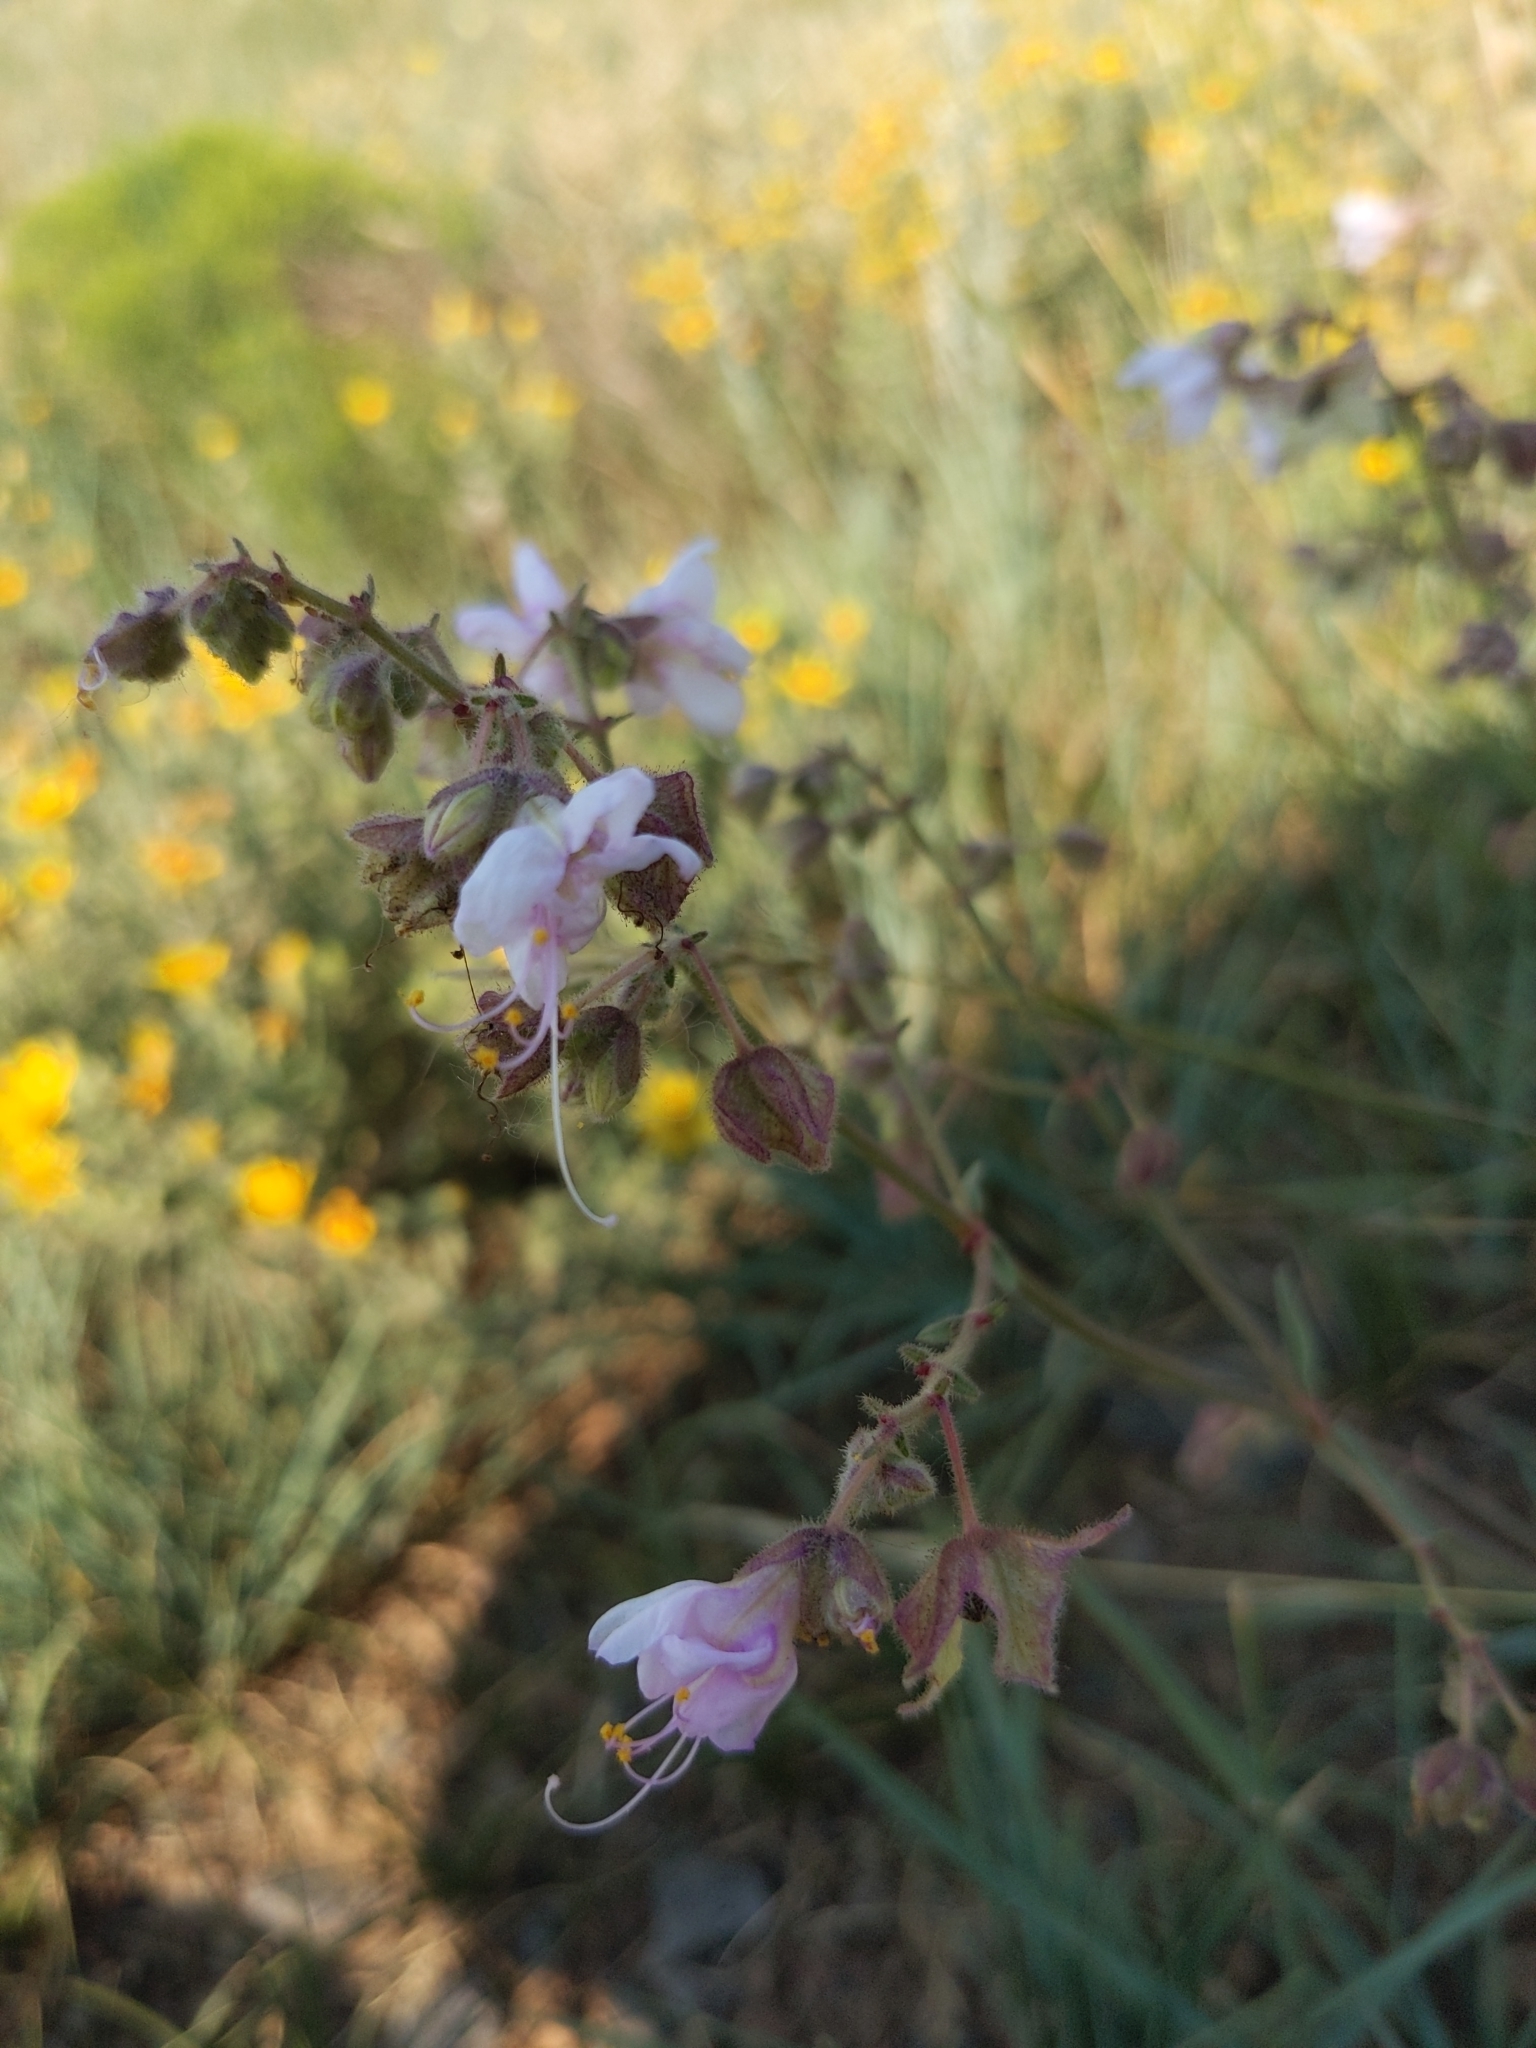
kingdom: Plantae
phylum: Tracheophyta
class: Magnoliopsida
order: Caryophyllales
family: Nyctaginaceae
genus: Mirabilis
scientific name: Mirabilis linearis
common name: Linear-leaved four-o'clock
